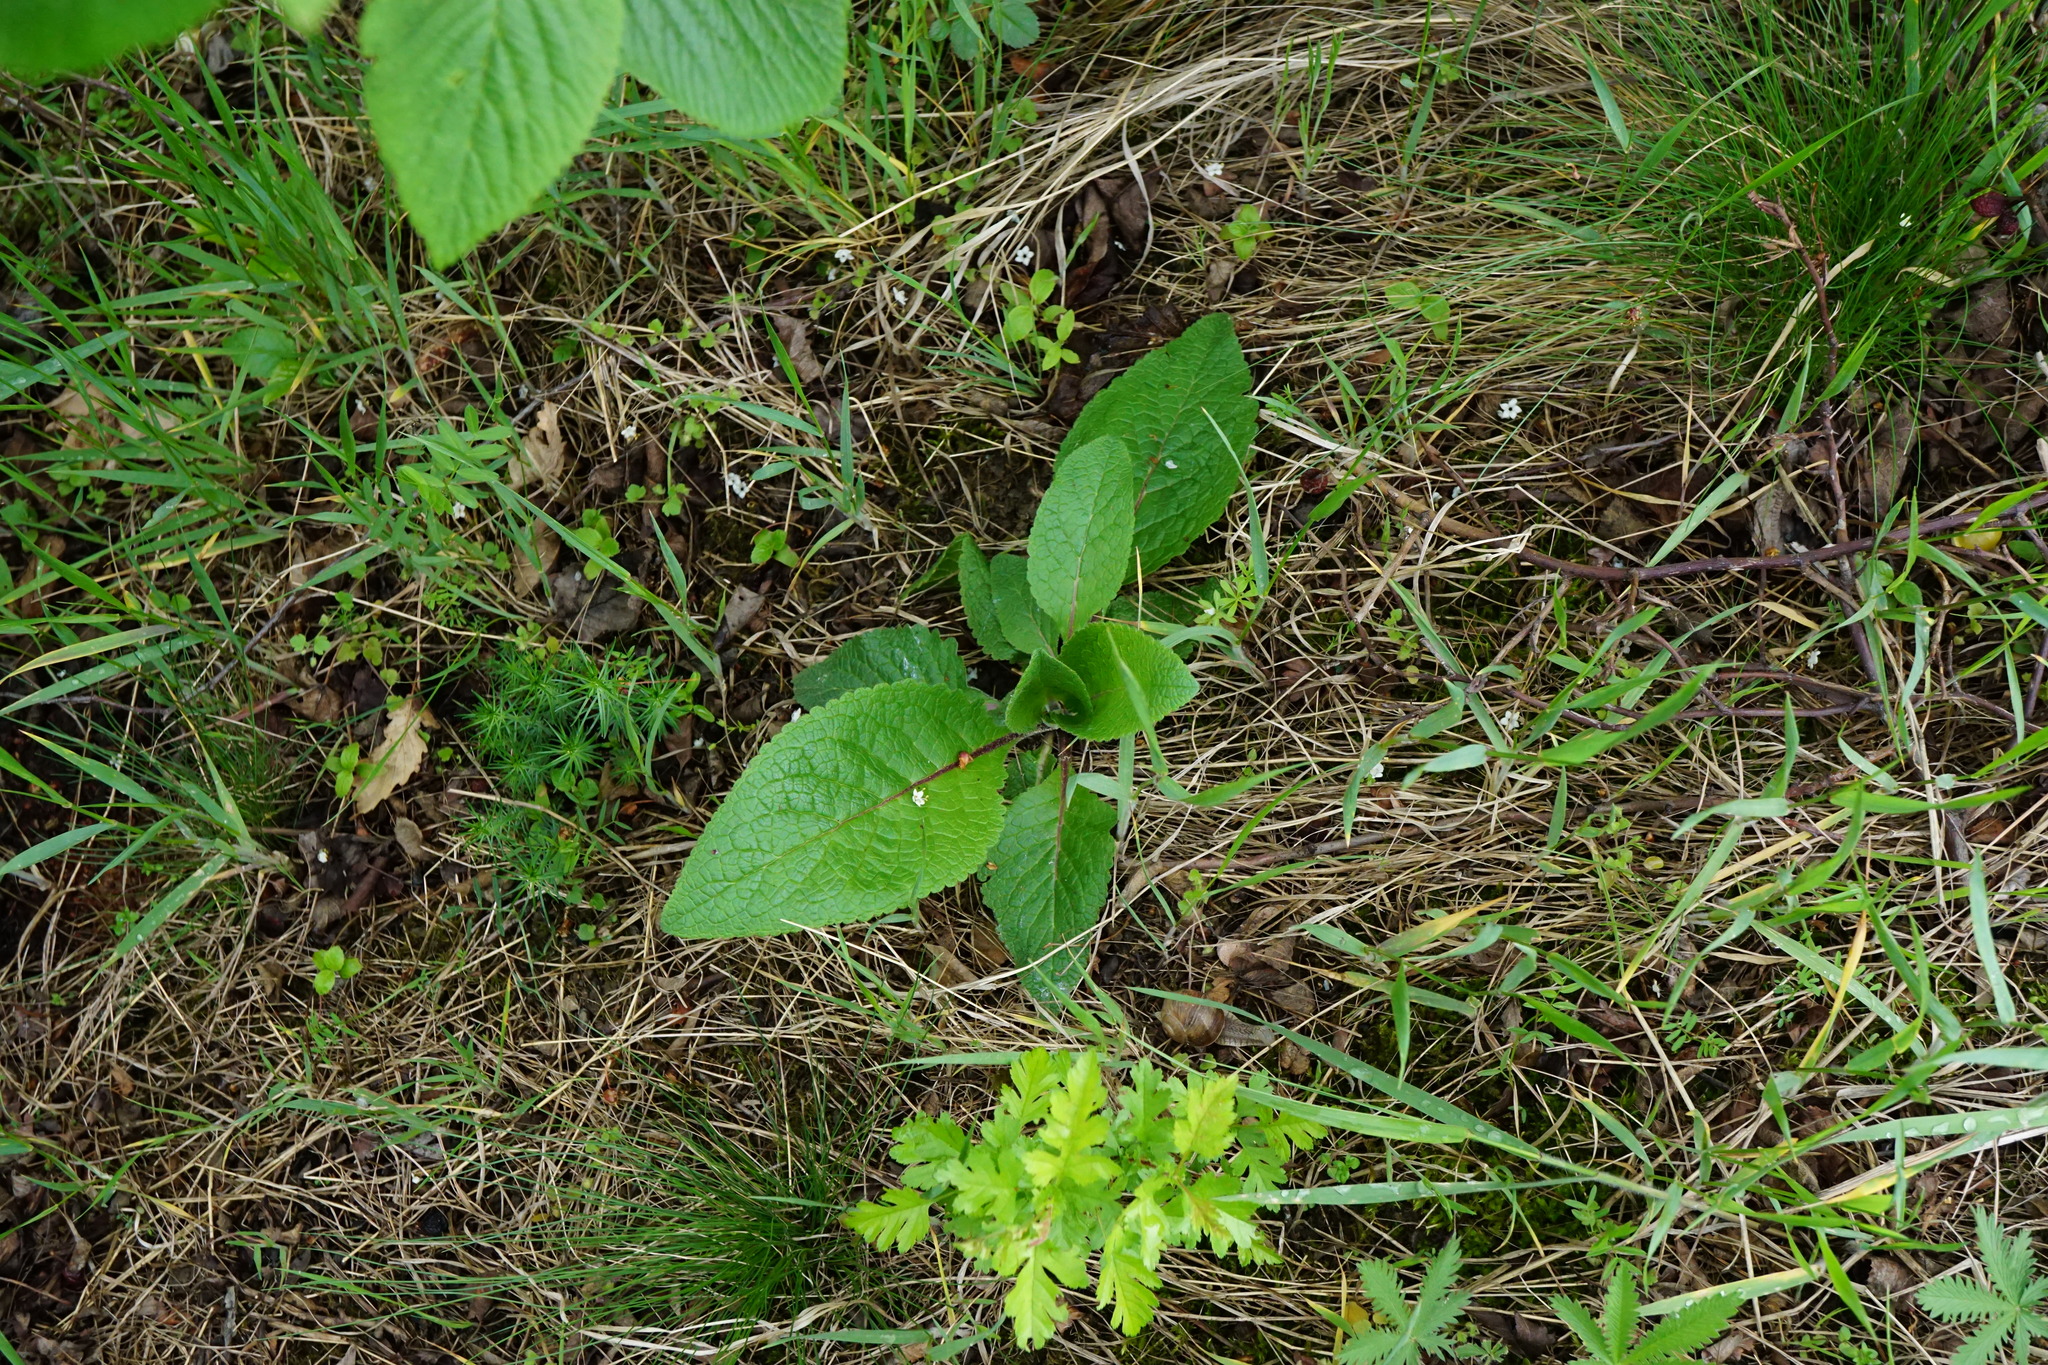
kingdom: Plantae
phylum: Tracheophyta
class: Magnoliopsida
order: Lamiales
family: Scrophulariaceae
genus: Verbascum
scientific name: Verbascum chaixii
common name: Nettle-leaved mullein
